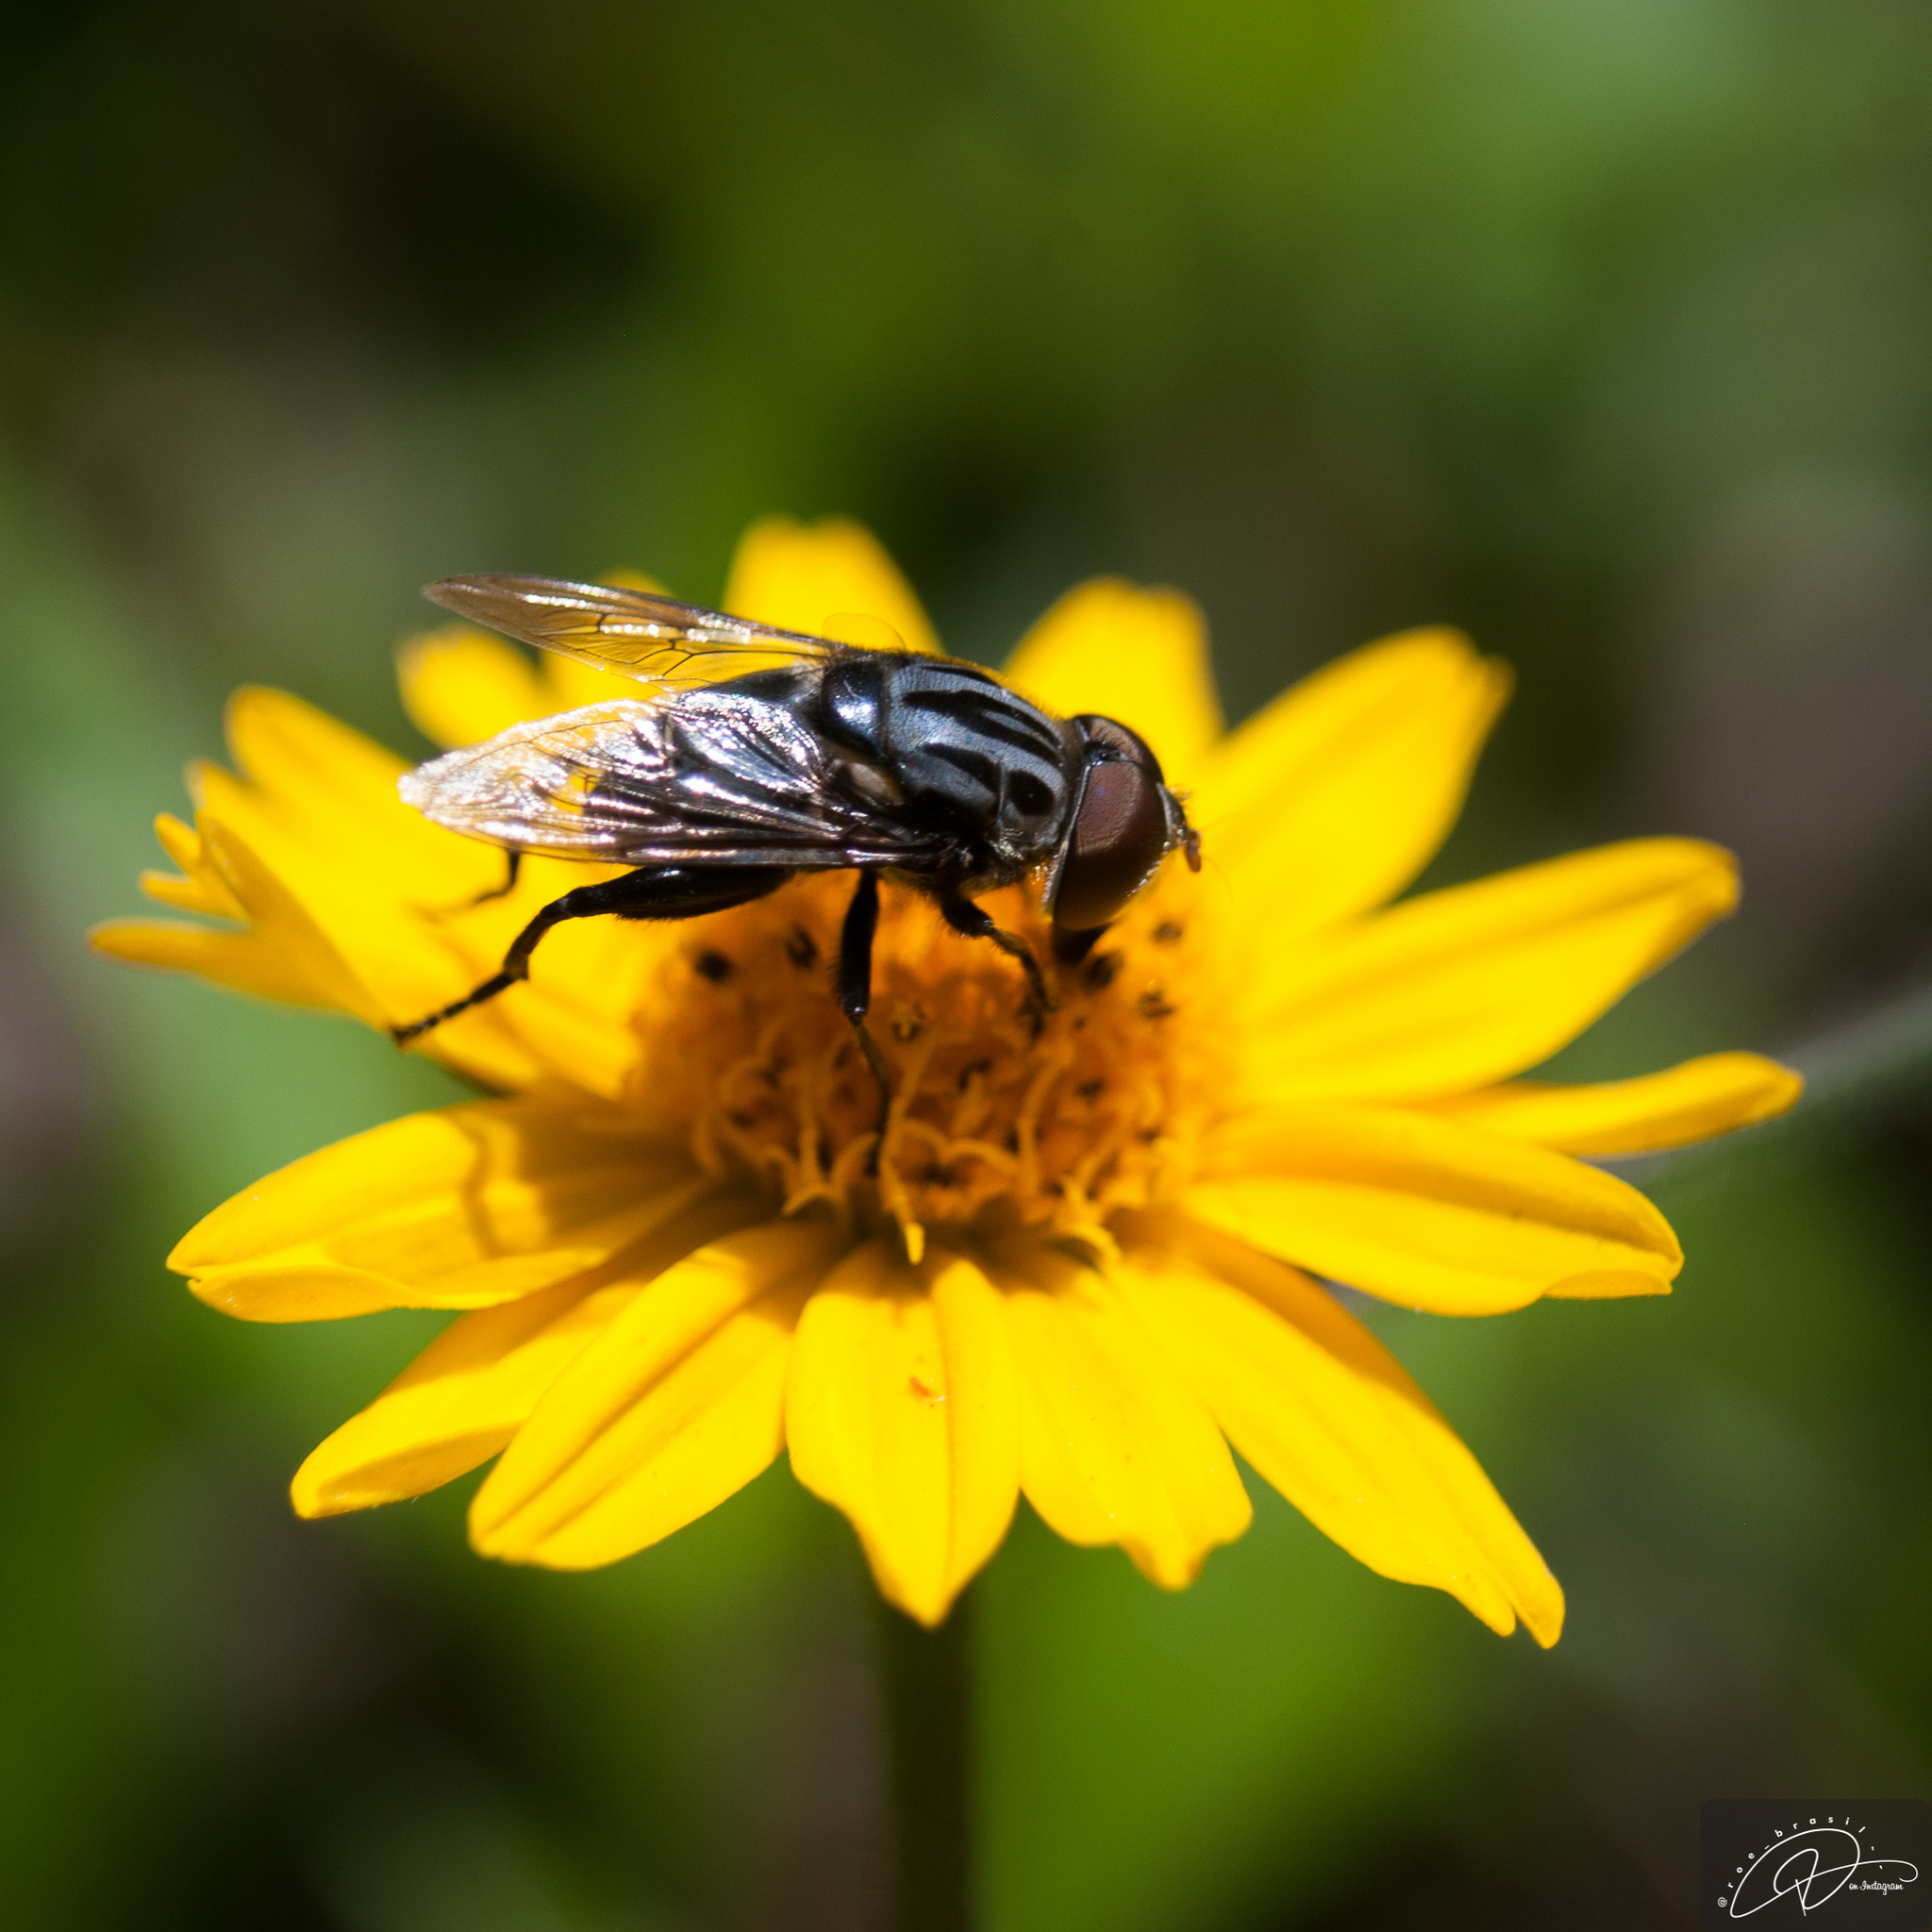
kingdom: Animalia
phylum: Arthropoda
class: Insecta
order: Diptera
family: Syrphidae
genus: Palpada
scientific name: Palpada furcata
